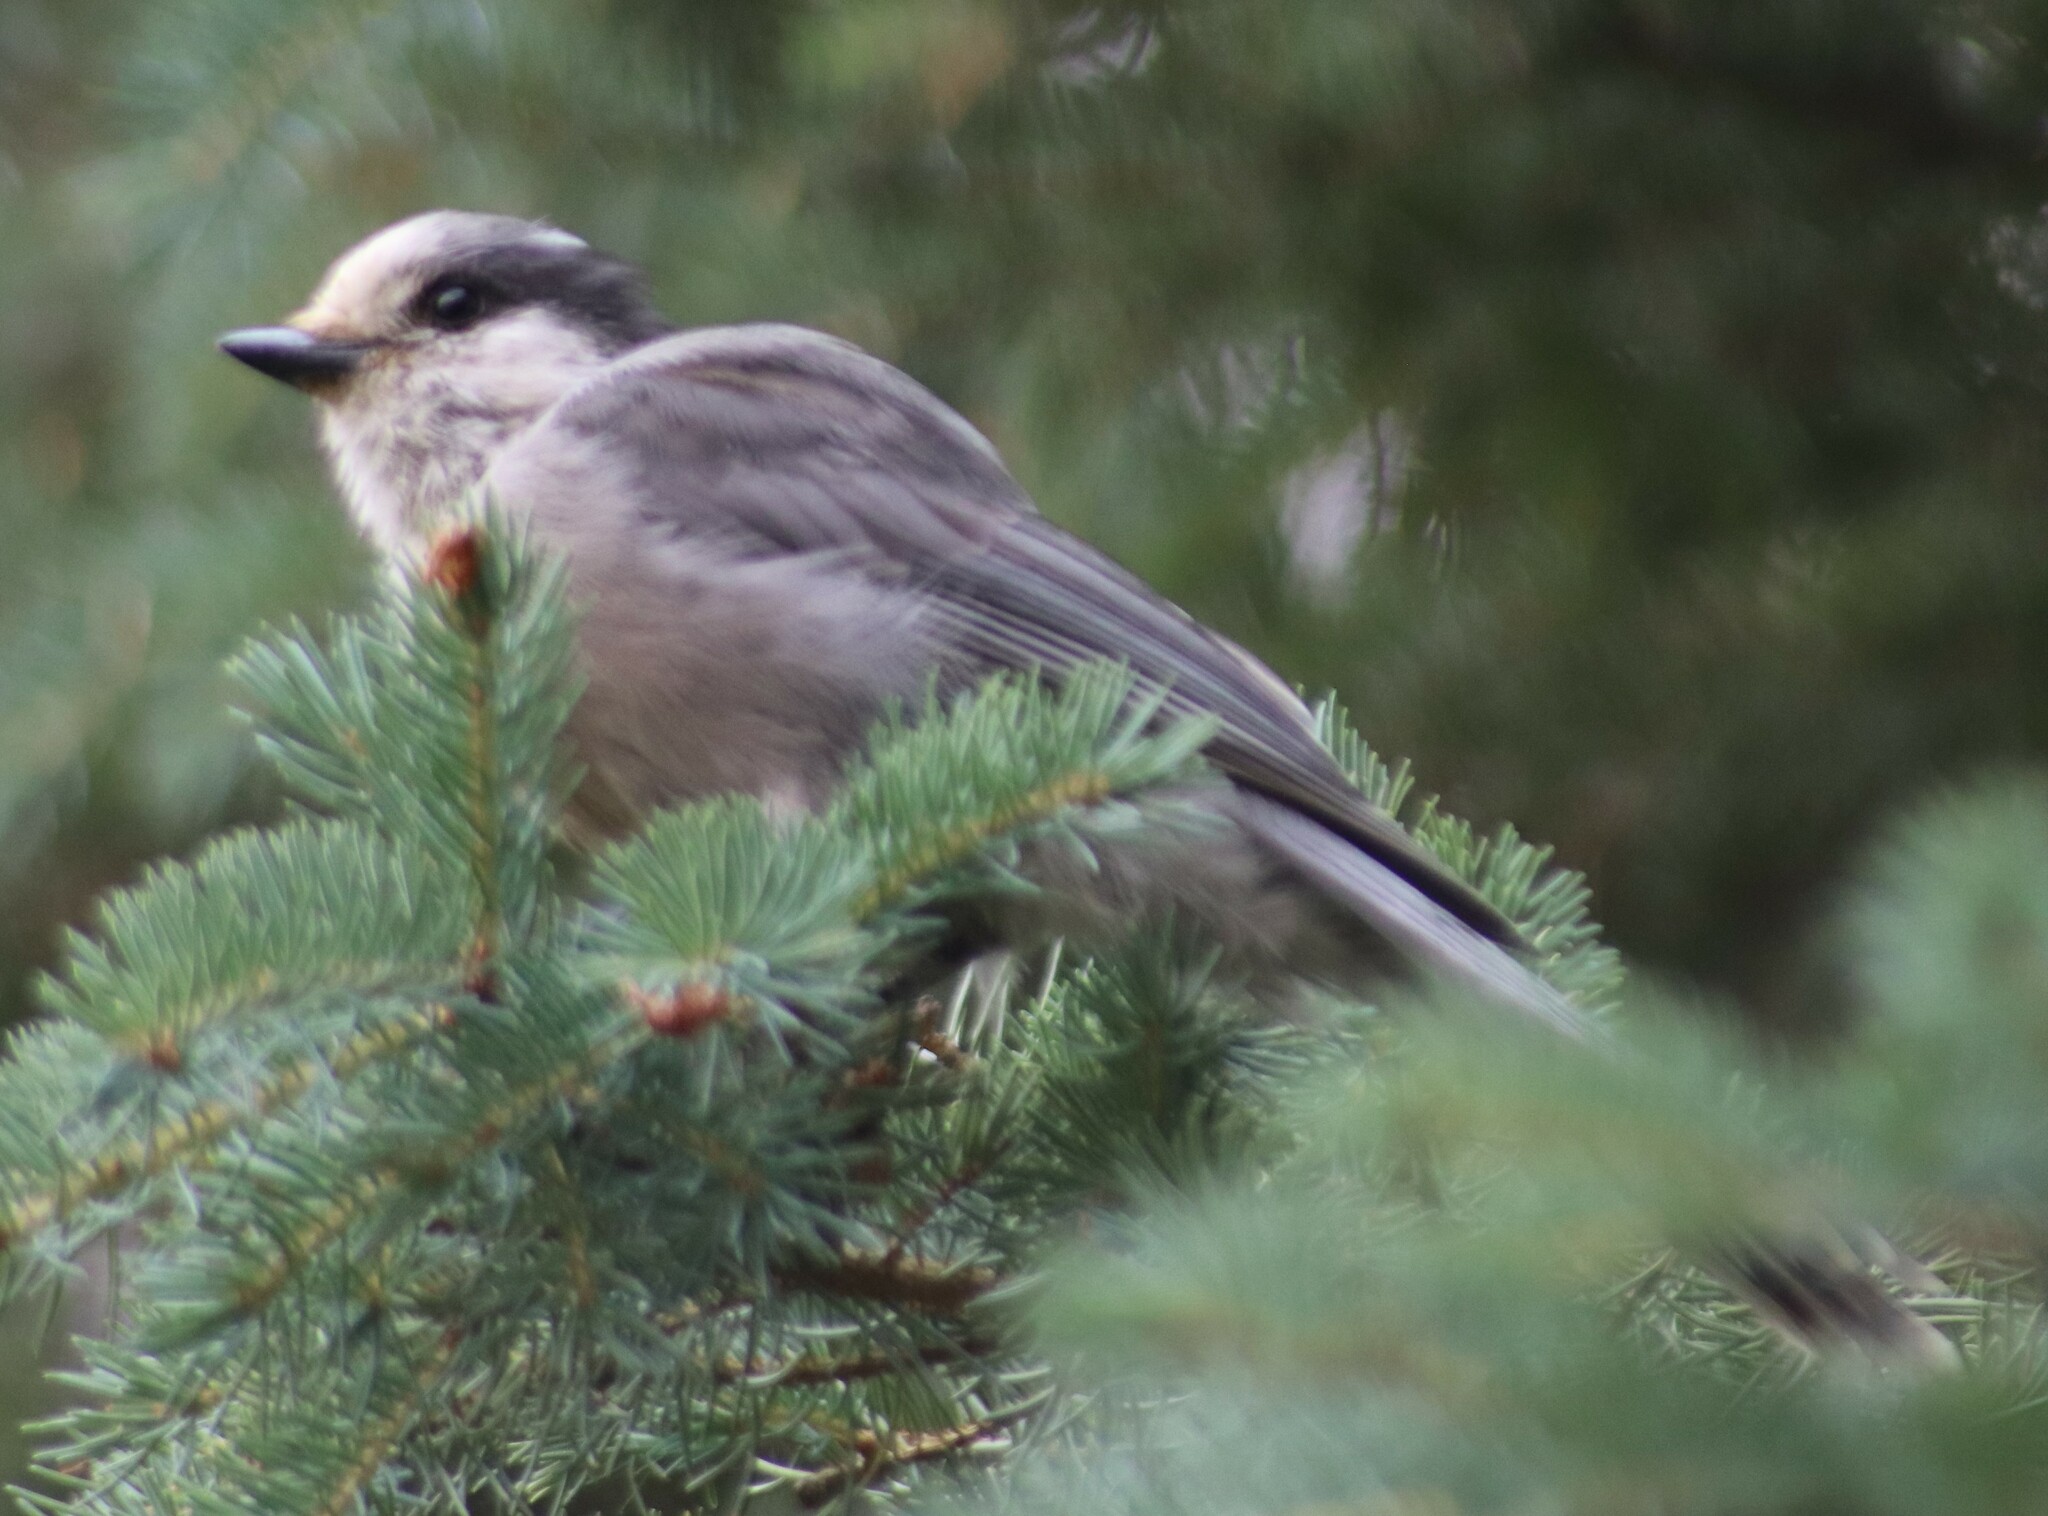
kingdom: Animalia
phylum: Chordata
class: Aves
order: Passeriformes
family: Corvidae
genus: Perisoreus
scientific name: Perisoreus canadensis
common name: Gray jay
